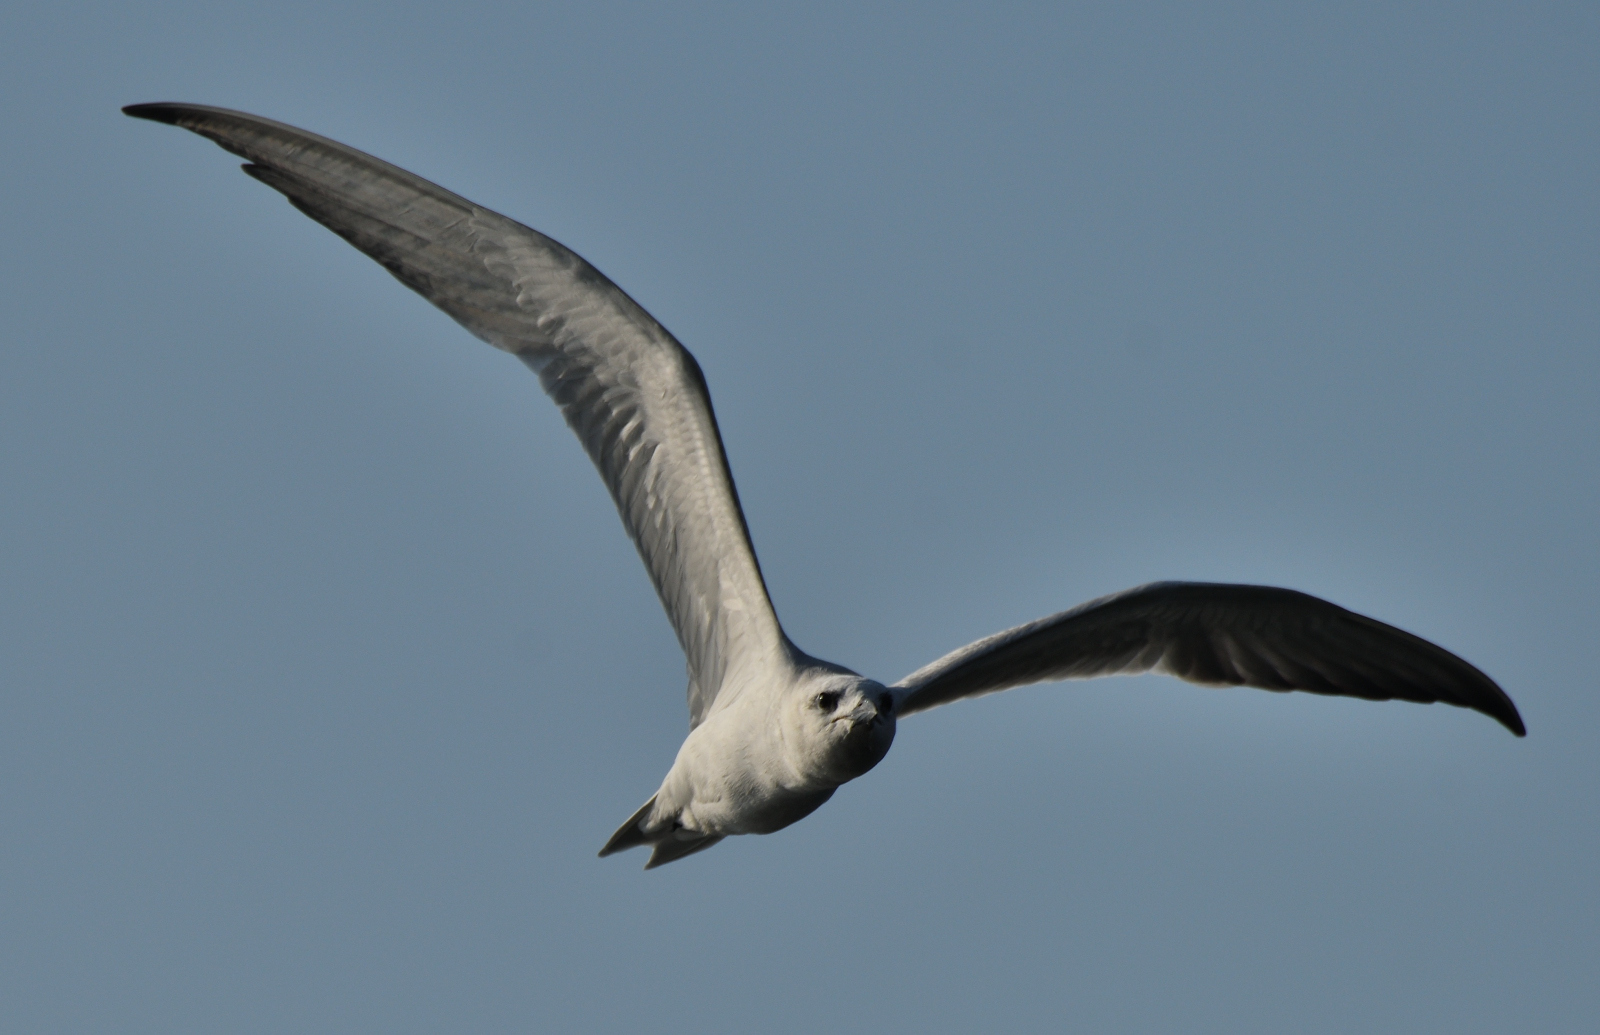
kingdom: Animalia
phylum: Chordata
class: Aves
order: Charadriiformes
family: Laridae
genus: Gelochelidon
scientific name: Gelochelidon nilotica
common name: Gull-billed tern
